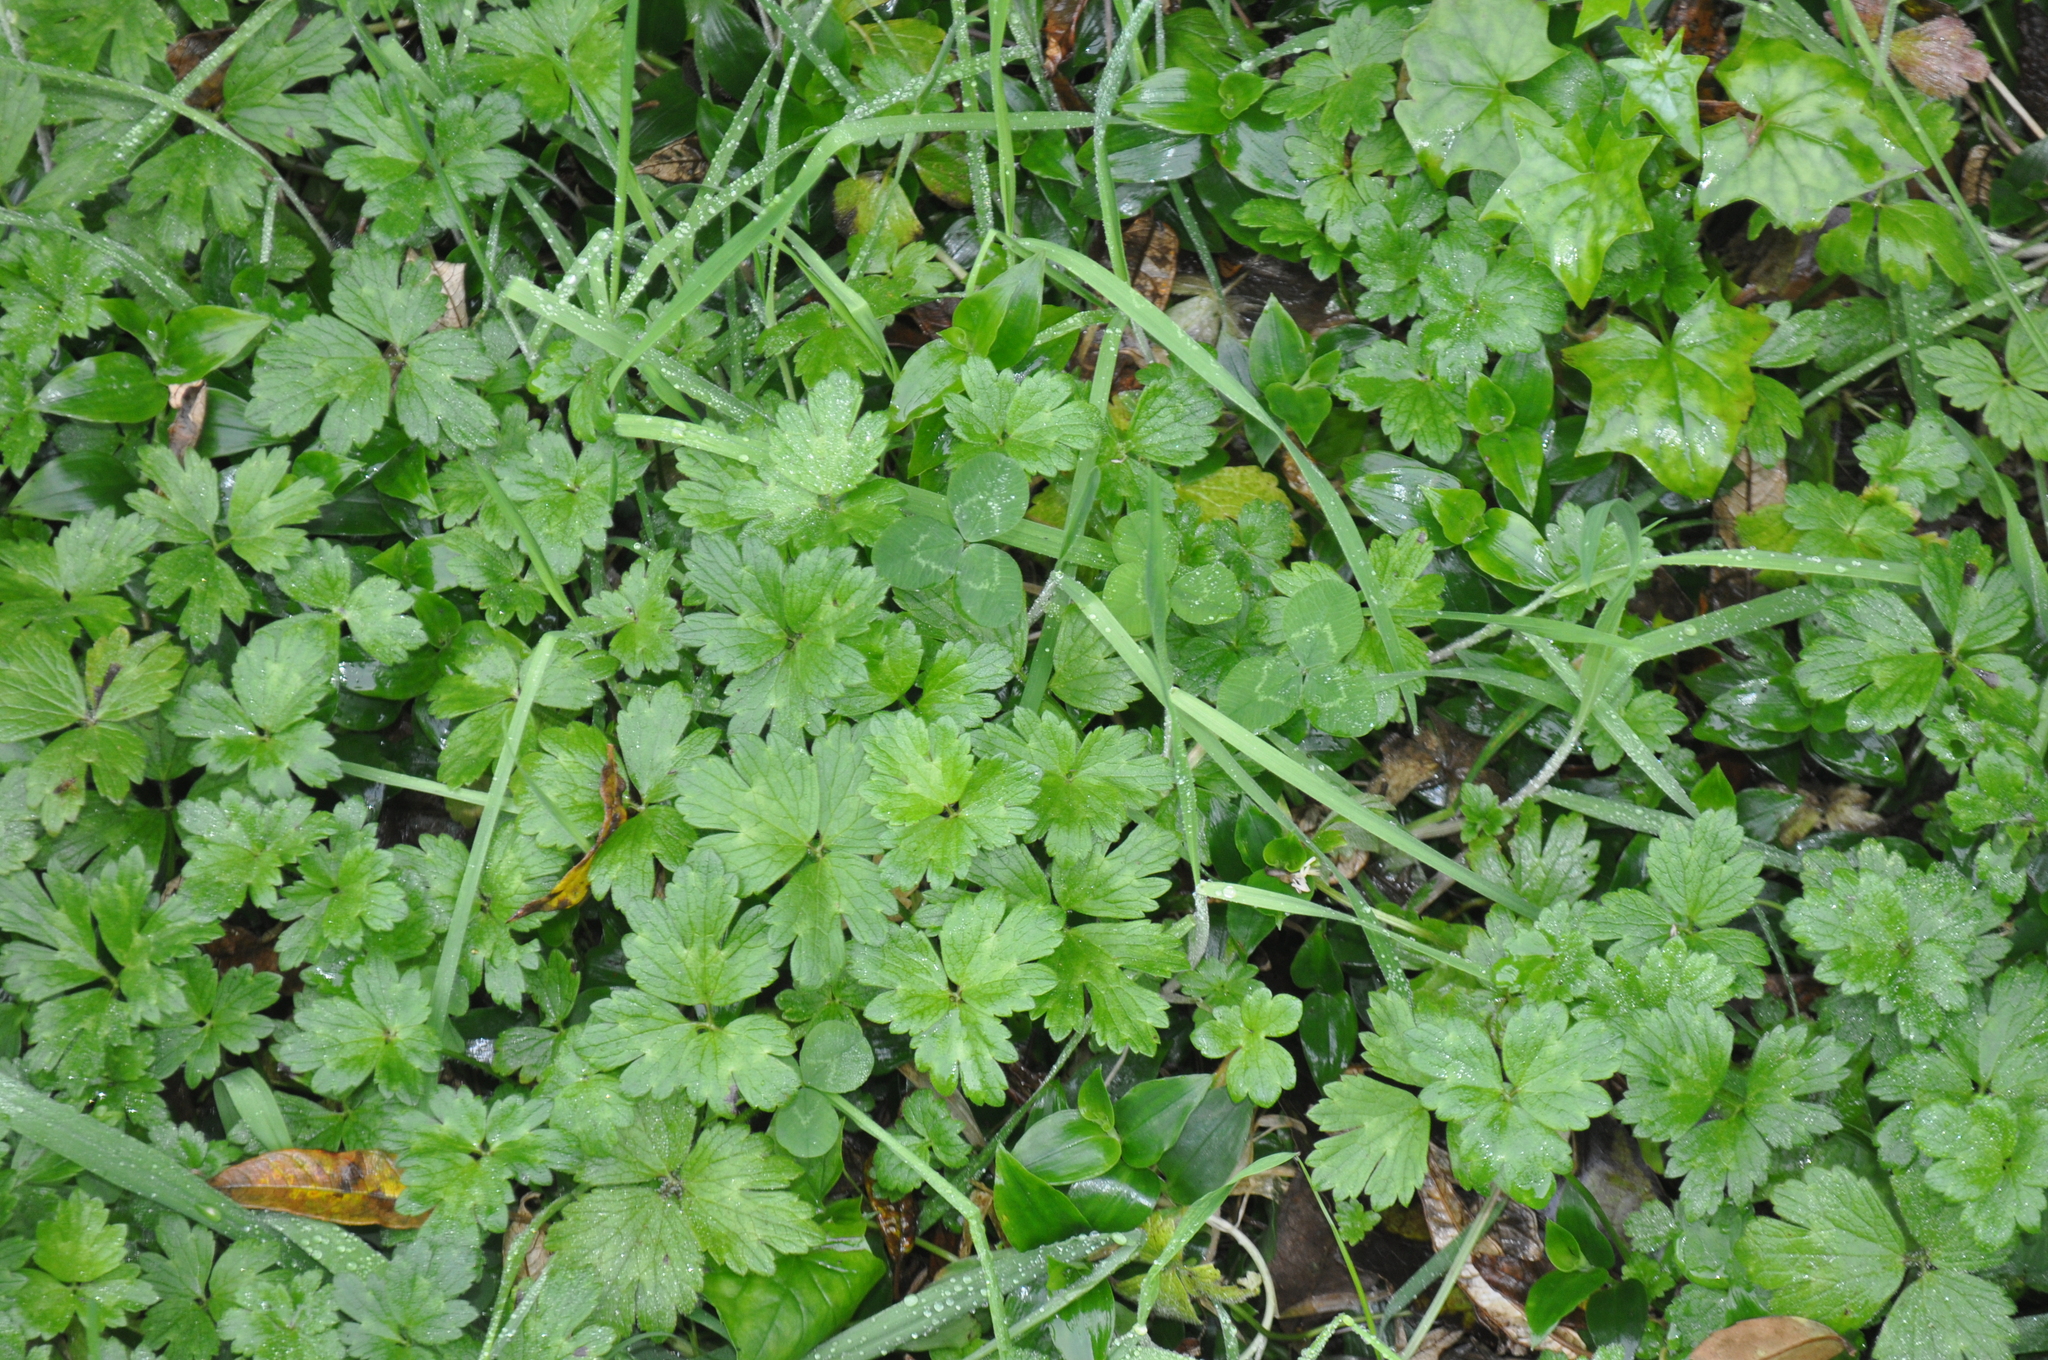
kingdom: Plantae
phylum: Tracheophyta
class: Magnoliopsida
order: Ranunculales
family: Ranunculaceae
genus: Ranunculus
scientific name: Ranunculus repens
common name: Creeping buttercup
